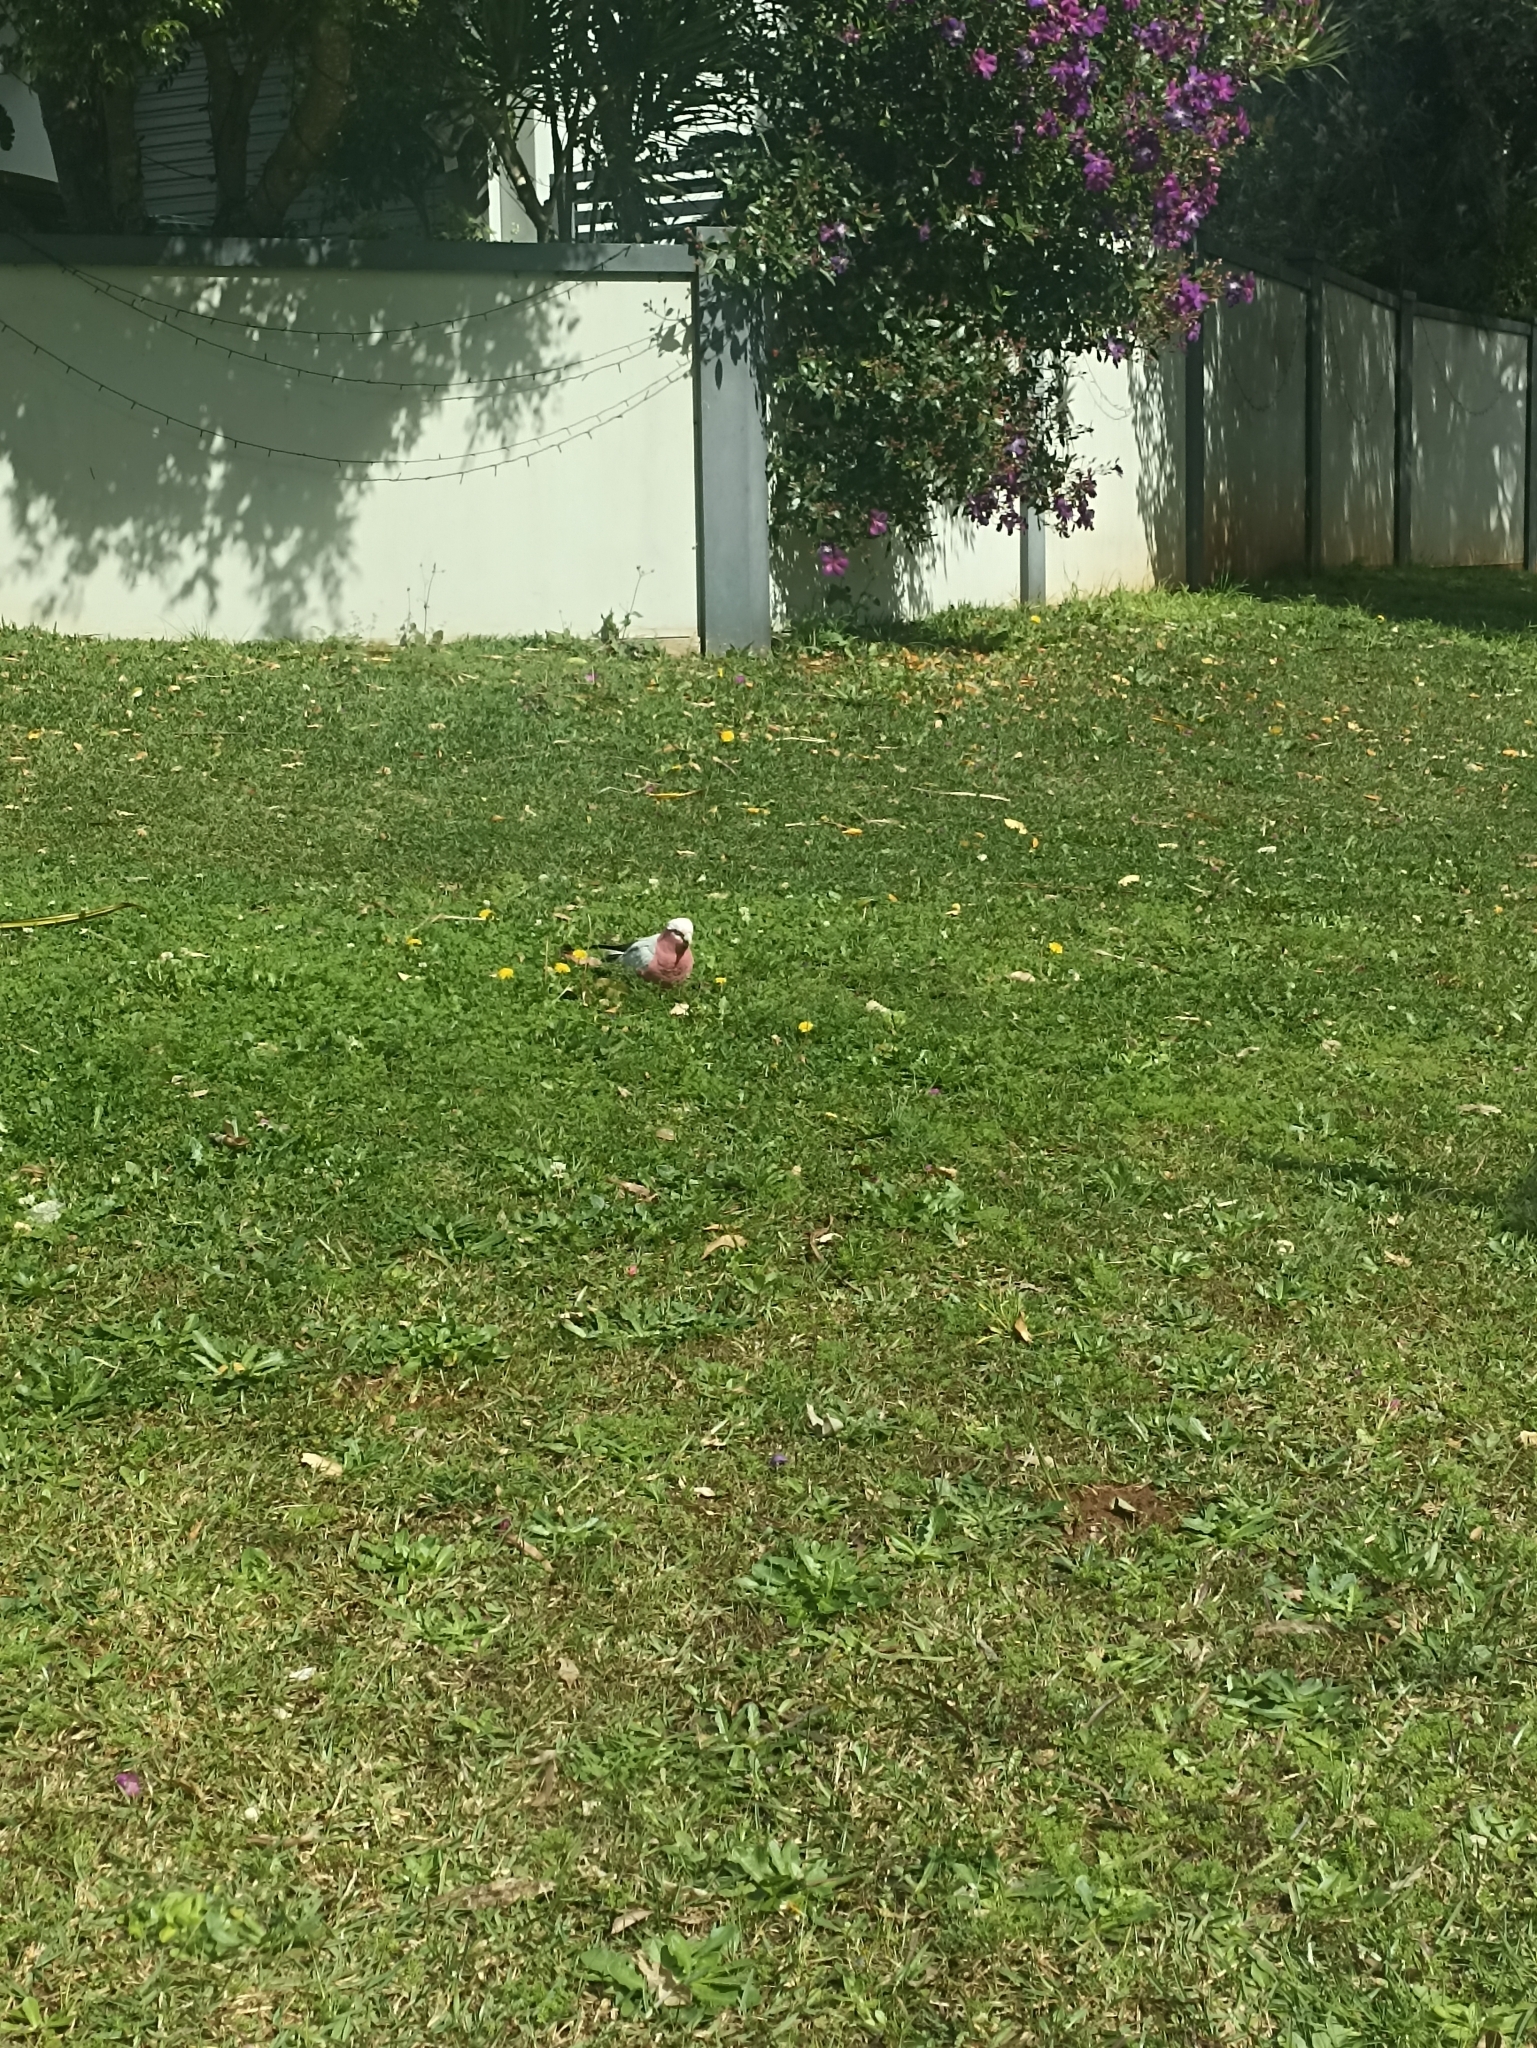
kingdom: Animalia
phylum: Chordata
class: Aves
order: Psittaciformes
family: Psittacidae
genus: Eolophus
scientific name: Eolophus roseicapilla
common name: Galah
